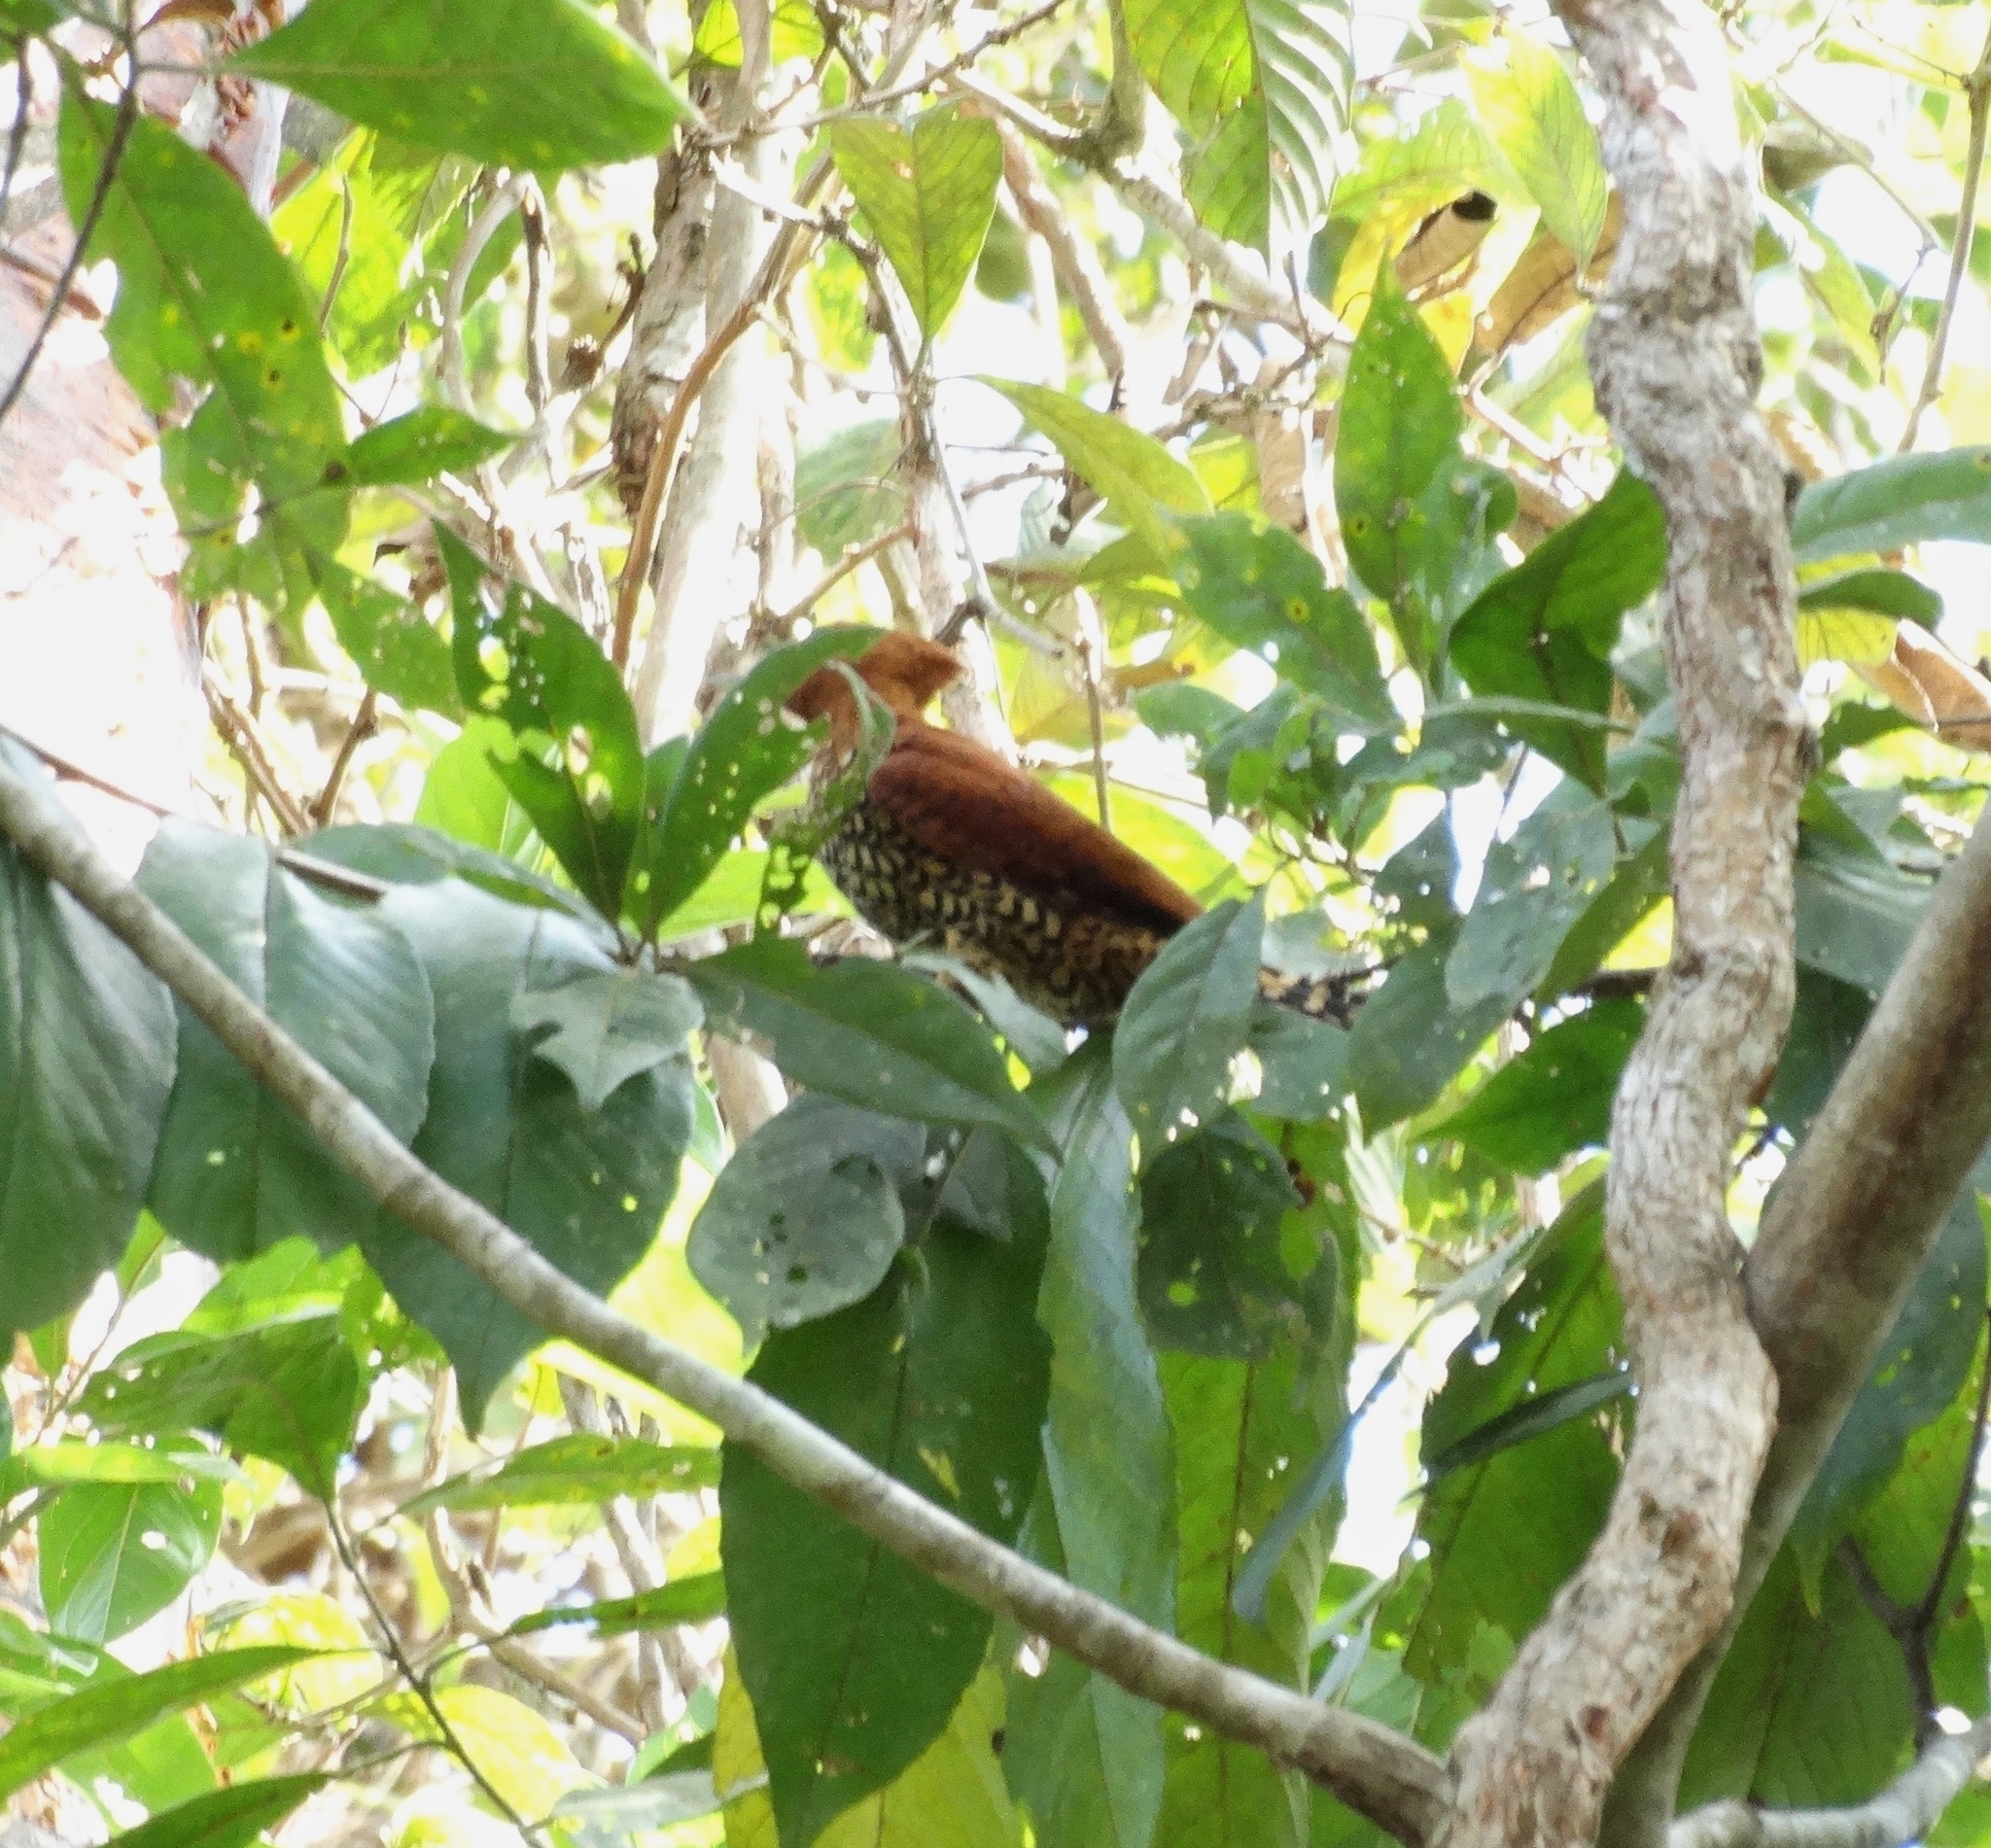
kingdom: Animalia
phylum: Chordata
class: Aves
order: Piciformes
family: Picidae
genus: Celeus
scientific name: Celeus loricatus
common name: Cinnamon woodpecker
